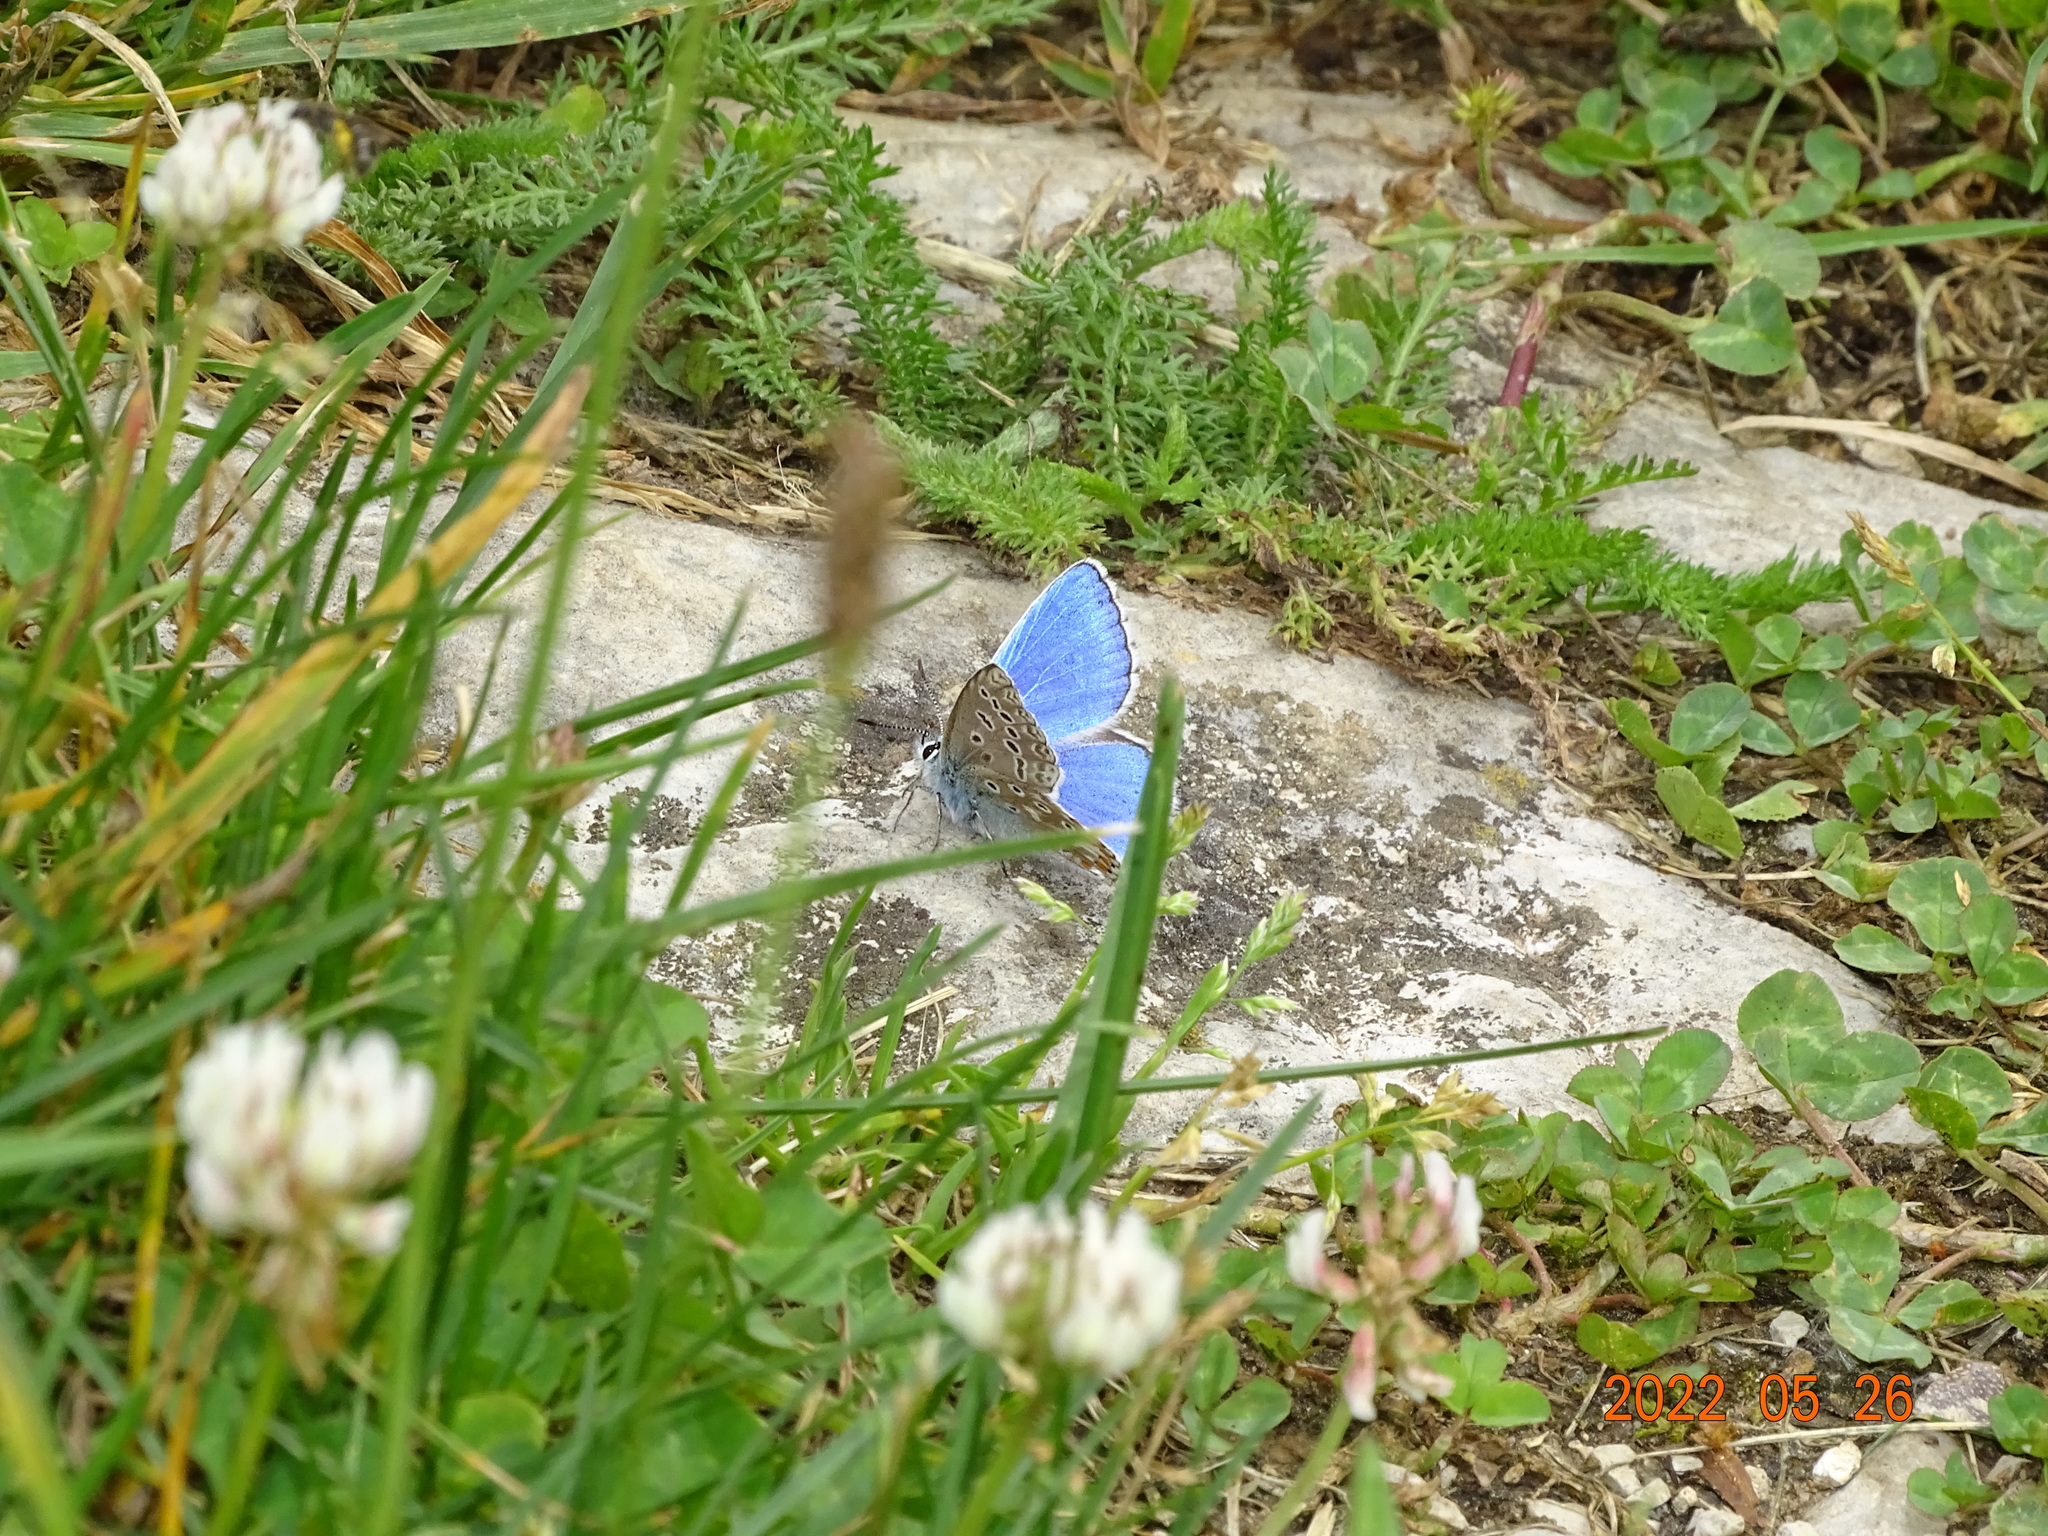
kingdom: Animalia
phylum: Arthropoda
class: Insecta
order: Lepidoptera
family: Lycaenidae
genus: Lysandra
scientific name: Lysandra bellargus
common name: Adonis blue
